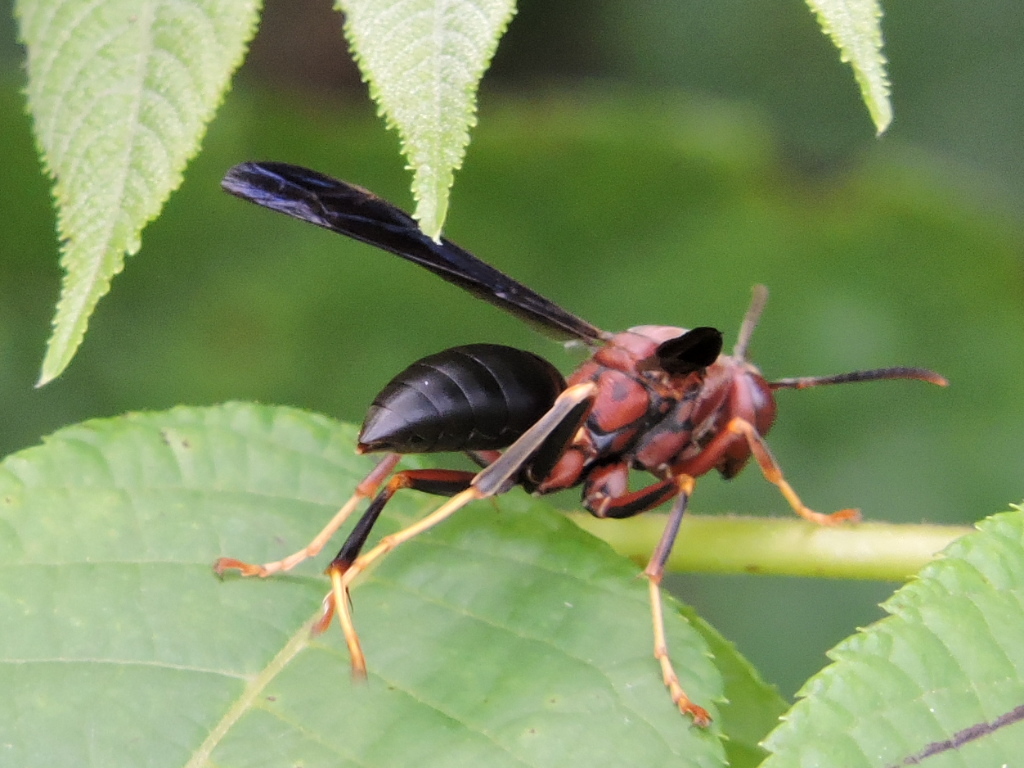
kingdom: Animalia
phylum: Arthropoda
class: Insecta
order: Hymenoptera
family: Eumenidae
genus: Polistes
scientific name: Polistes metricus
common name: Metric paper wasp
